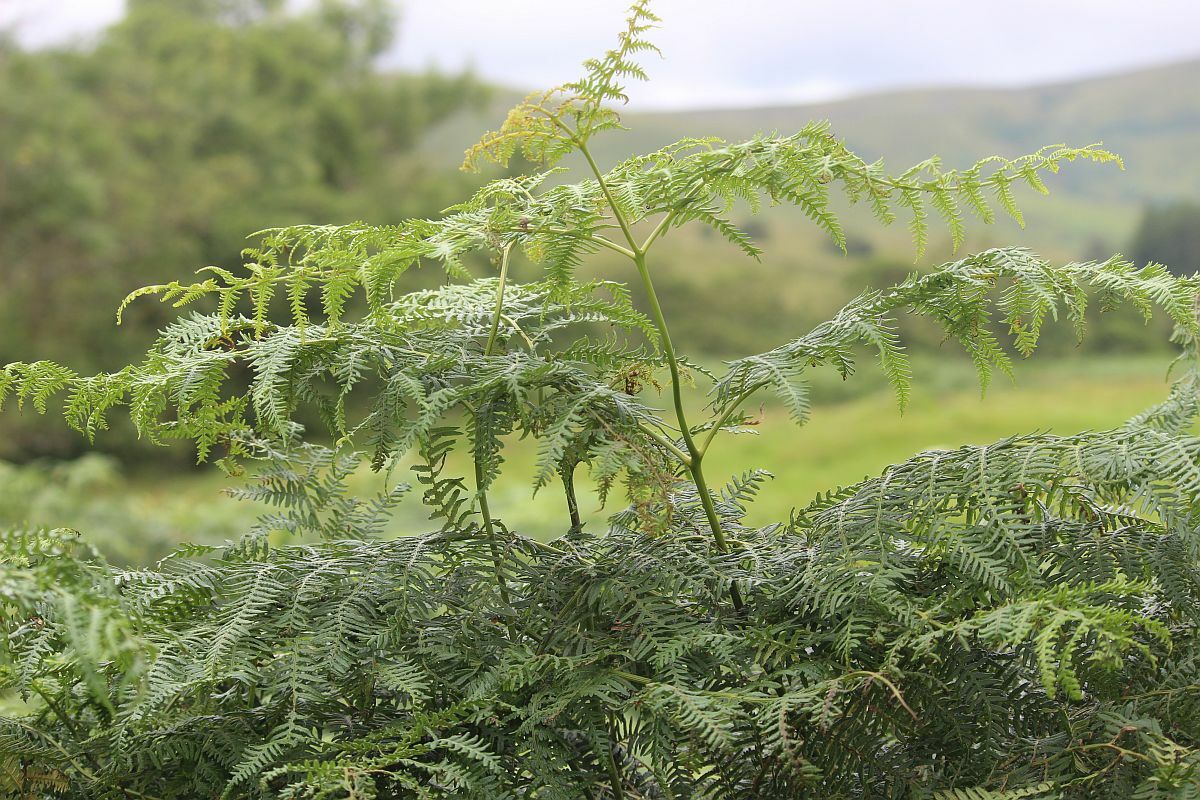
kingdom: Plantae
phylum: Tracheophyta
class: Polypodiopsida
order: Polypodiales
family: Dennstaedtiaceae
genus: Pteridium
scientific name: Pteridium aquilinum
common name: Bracken
